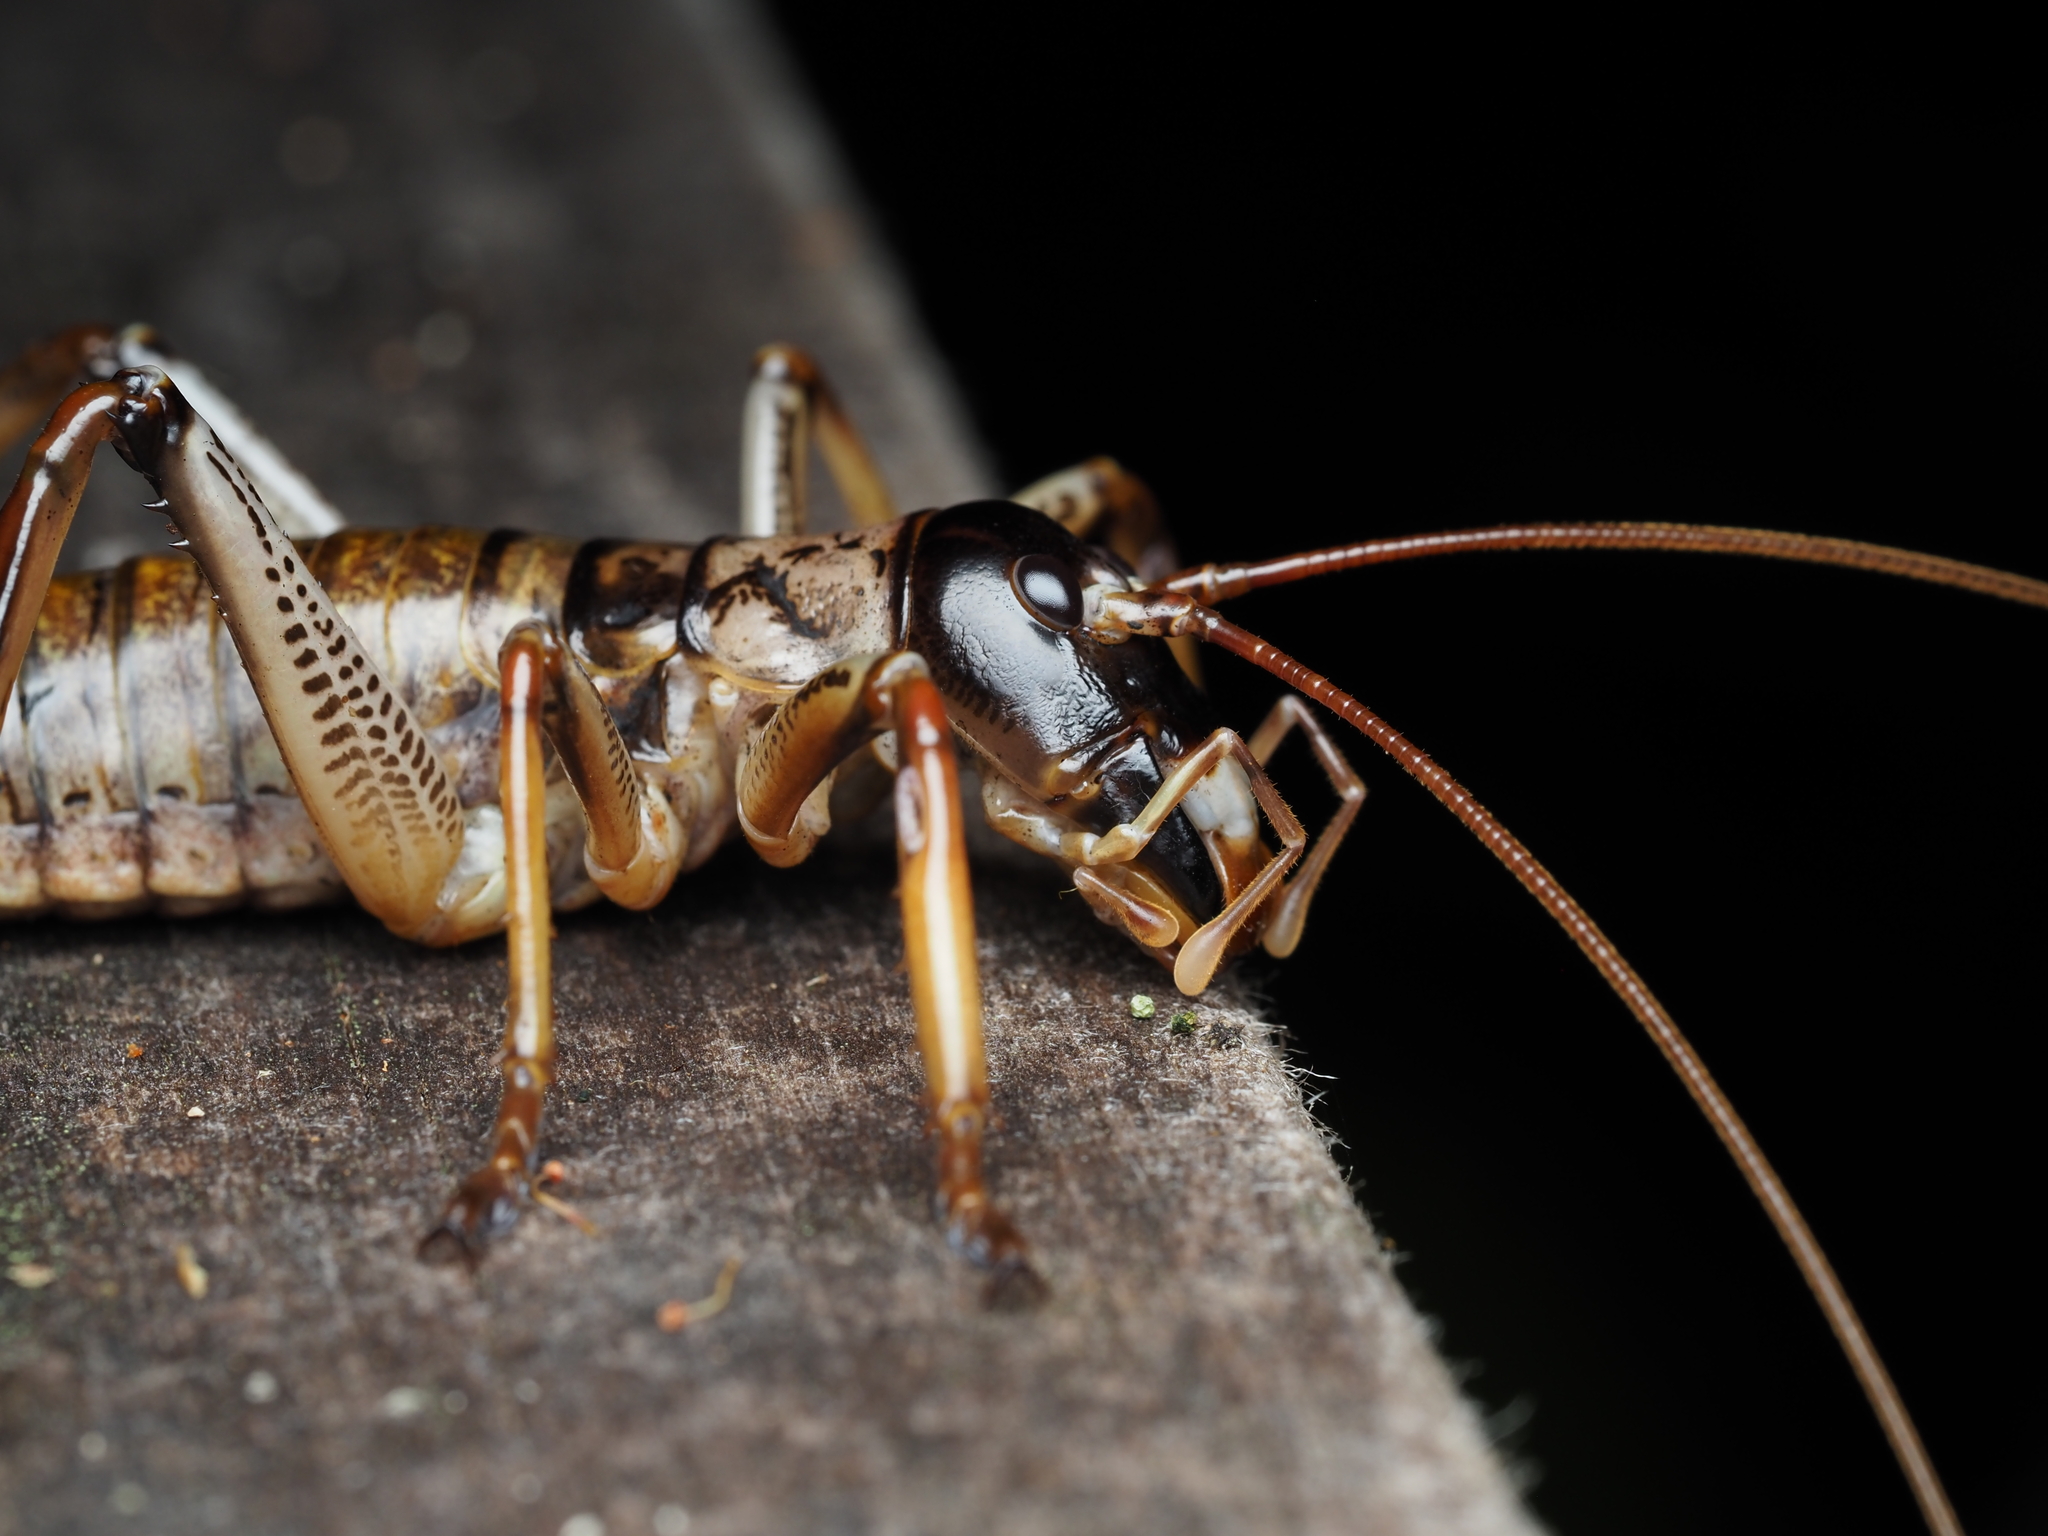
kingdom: Animalia
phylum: Arthropoda
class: Insecta
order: Orthoptera
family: Anostostomatidae
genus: Hemideina
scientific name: Hemideina thoracica
